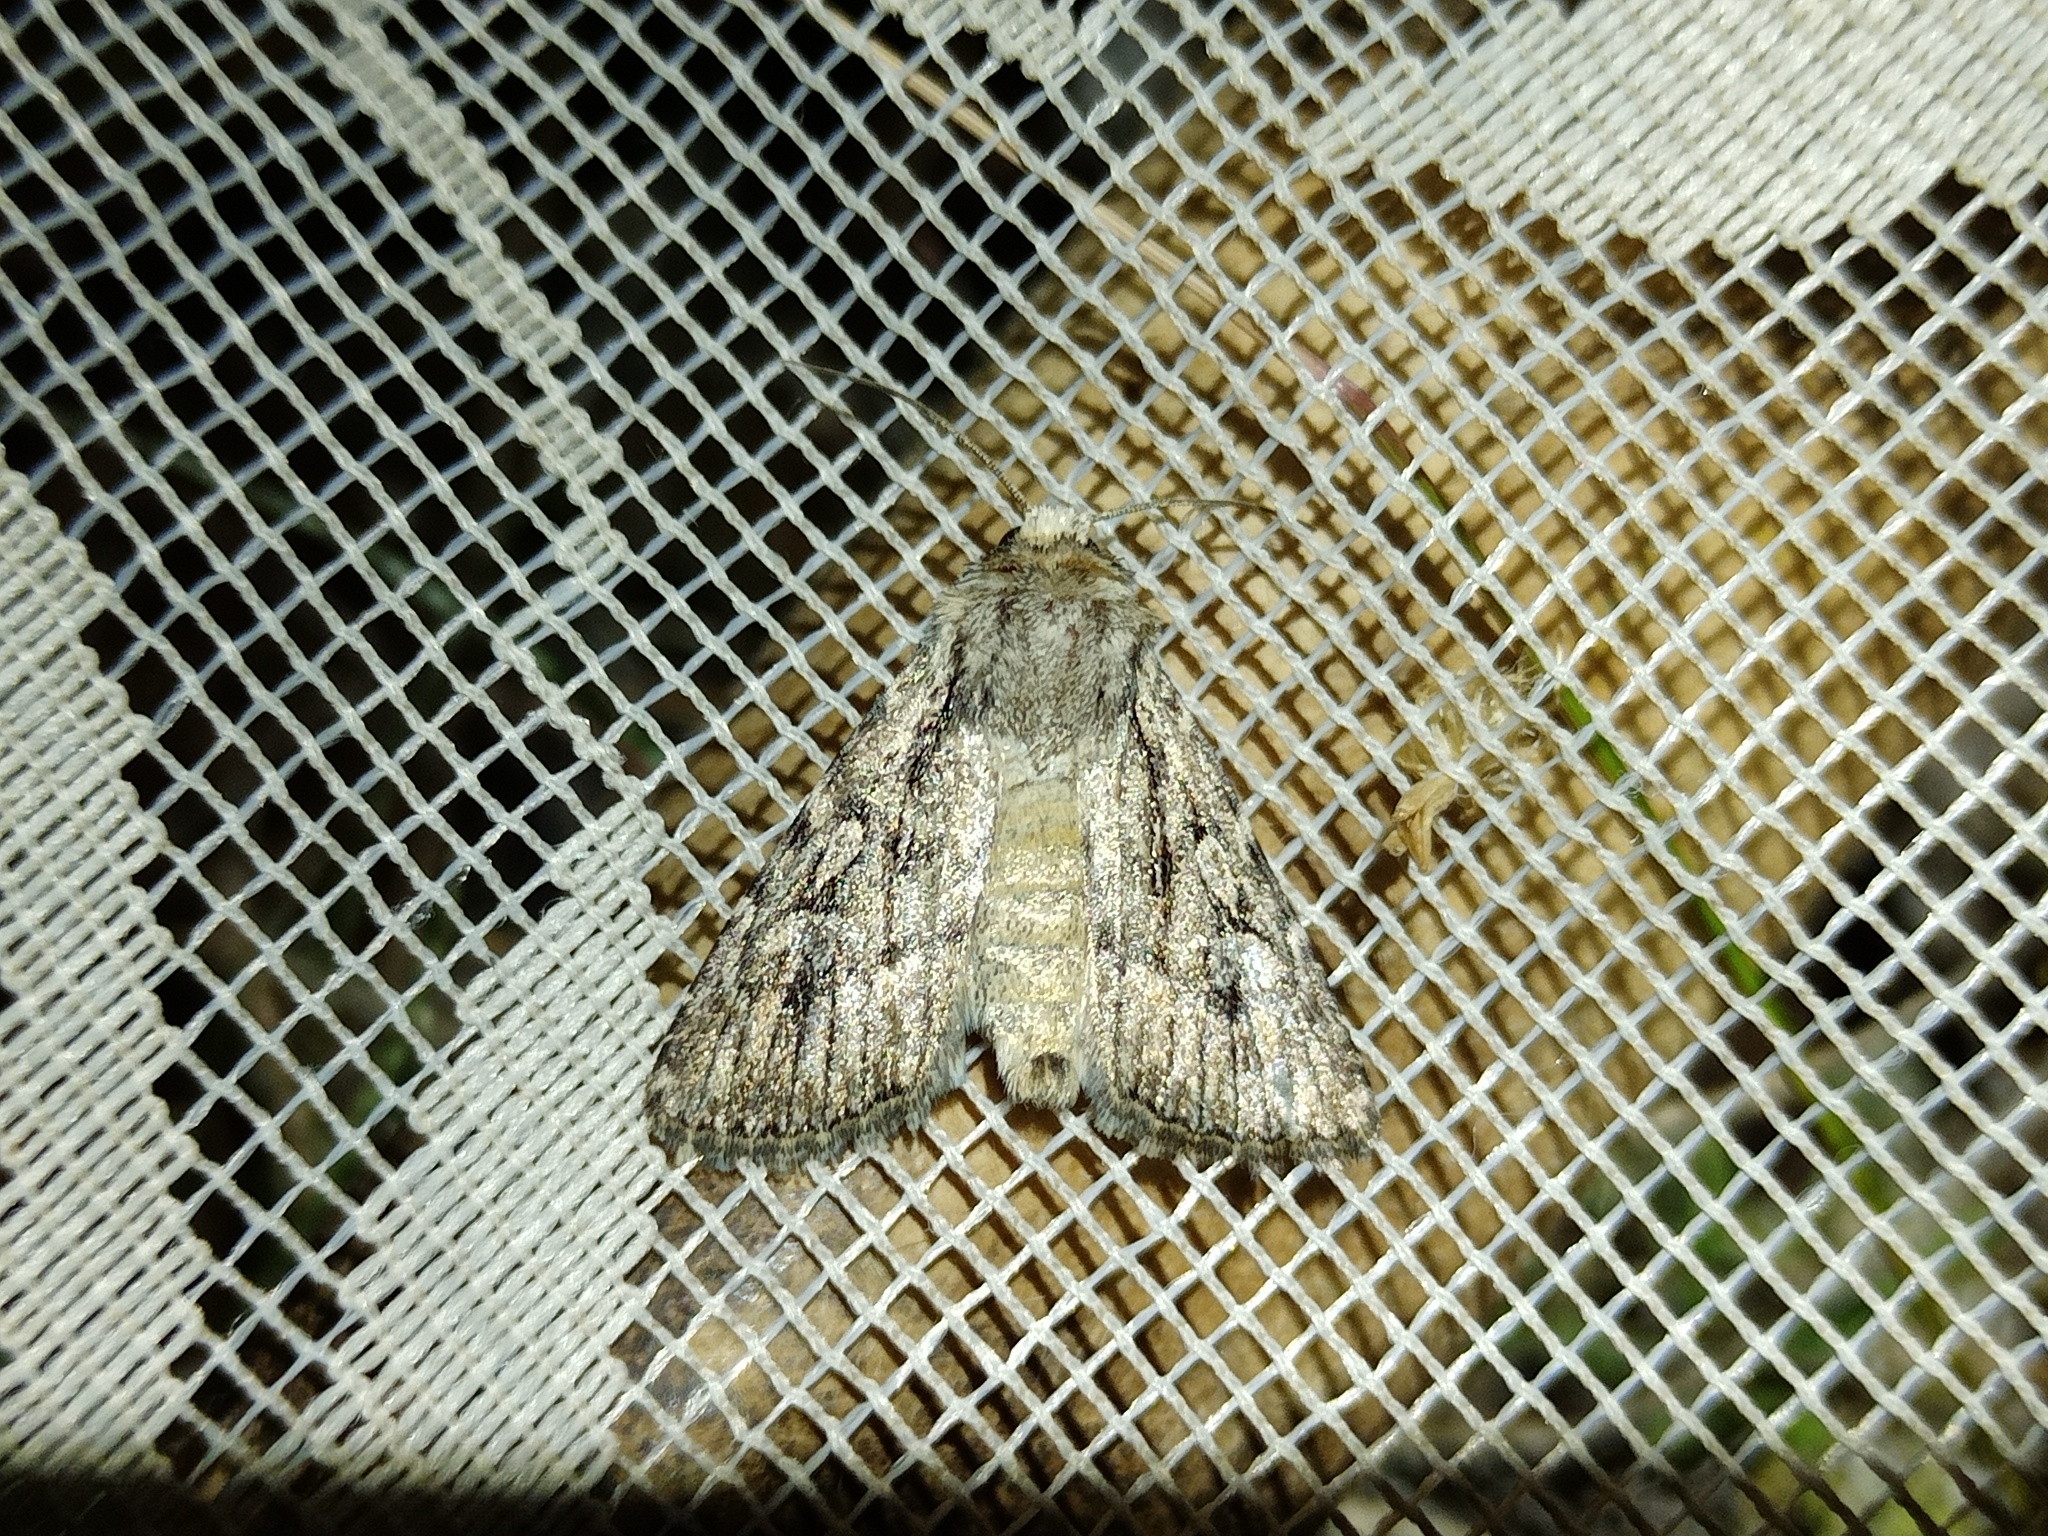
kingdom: Animalia
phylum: Arthropoda
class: Insecta
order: Lepidoptera
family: Noctuidae
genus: Yigoga
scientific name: Yigoga signifera
